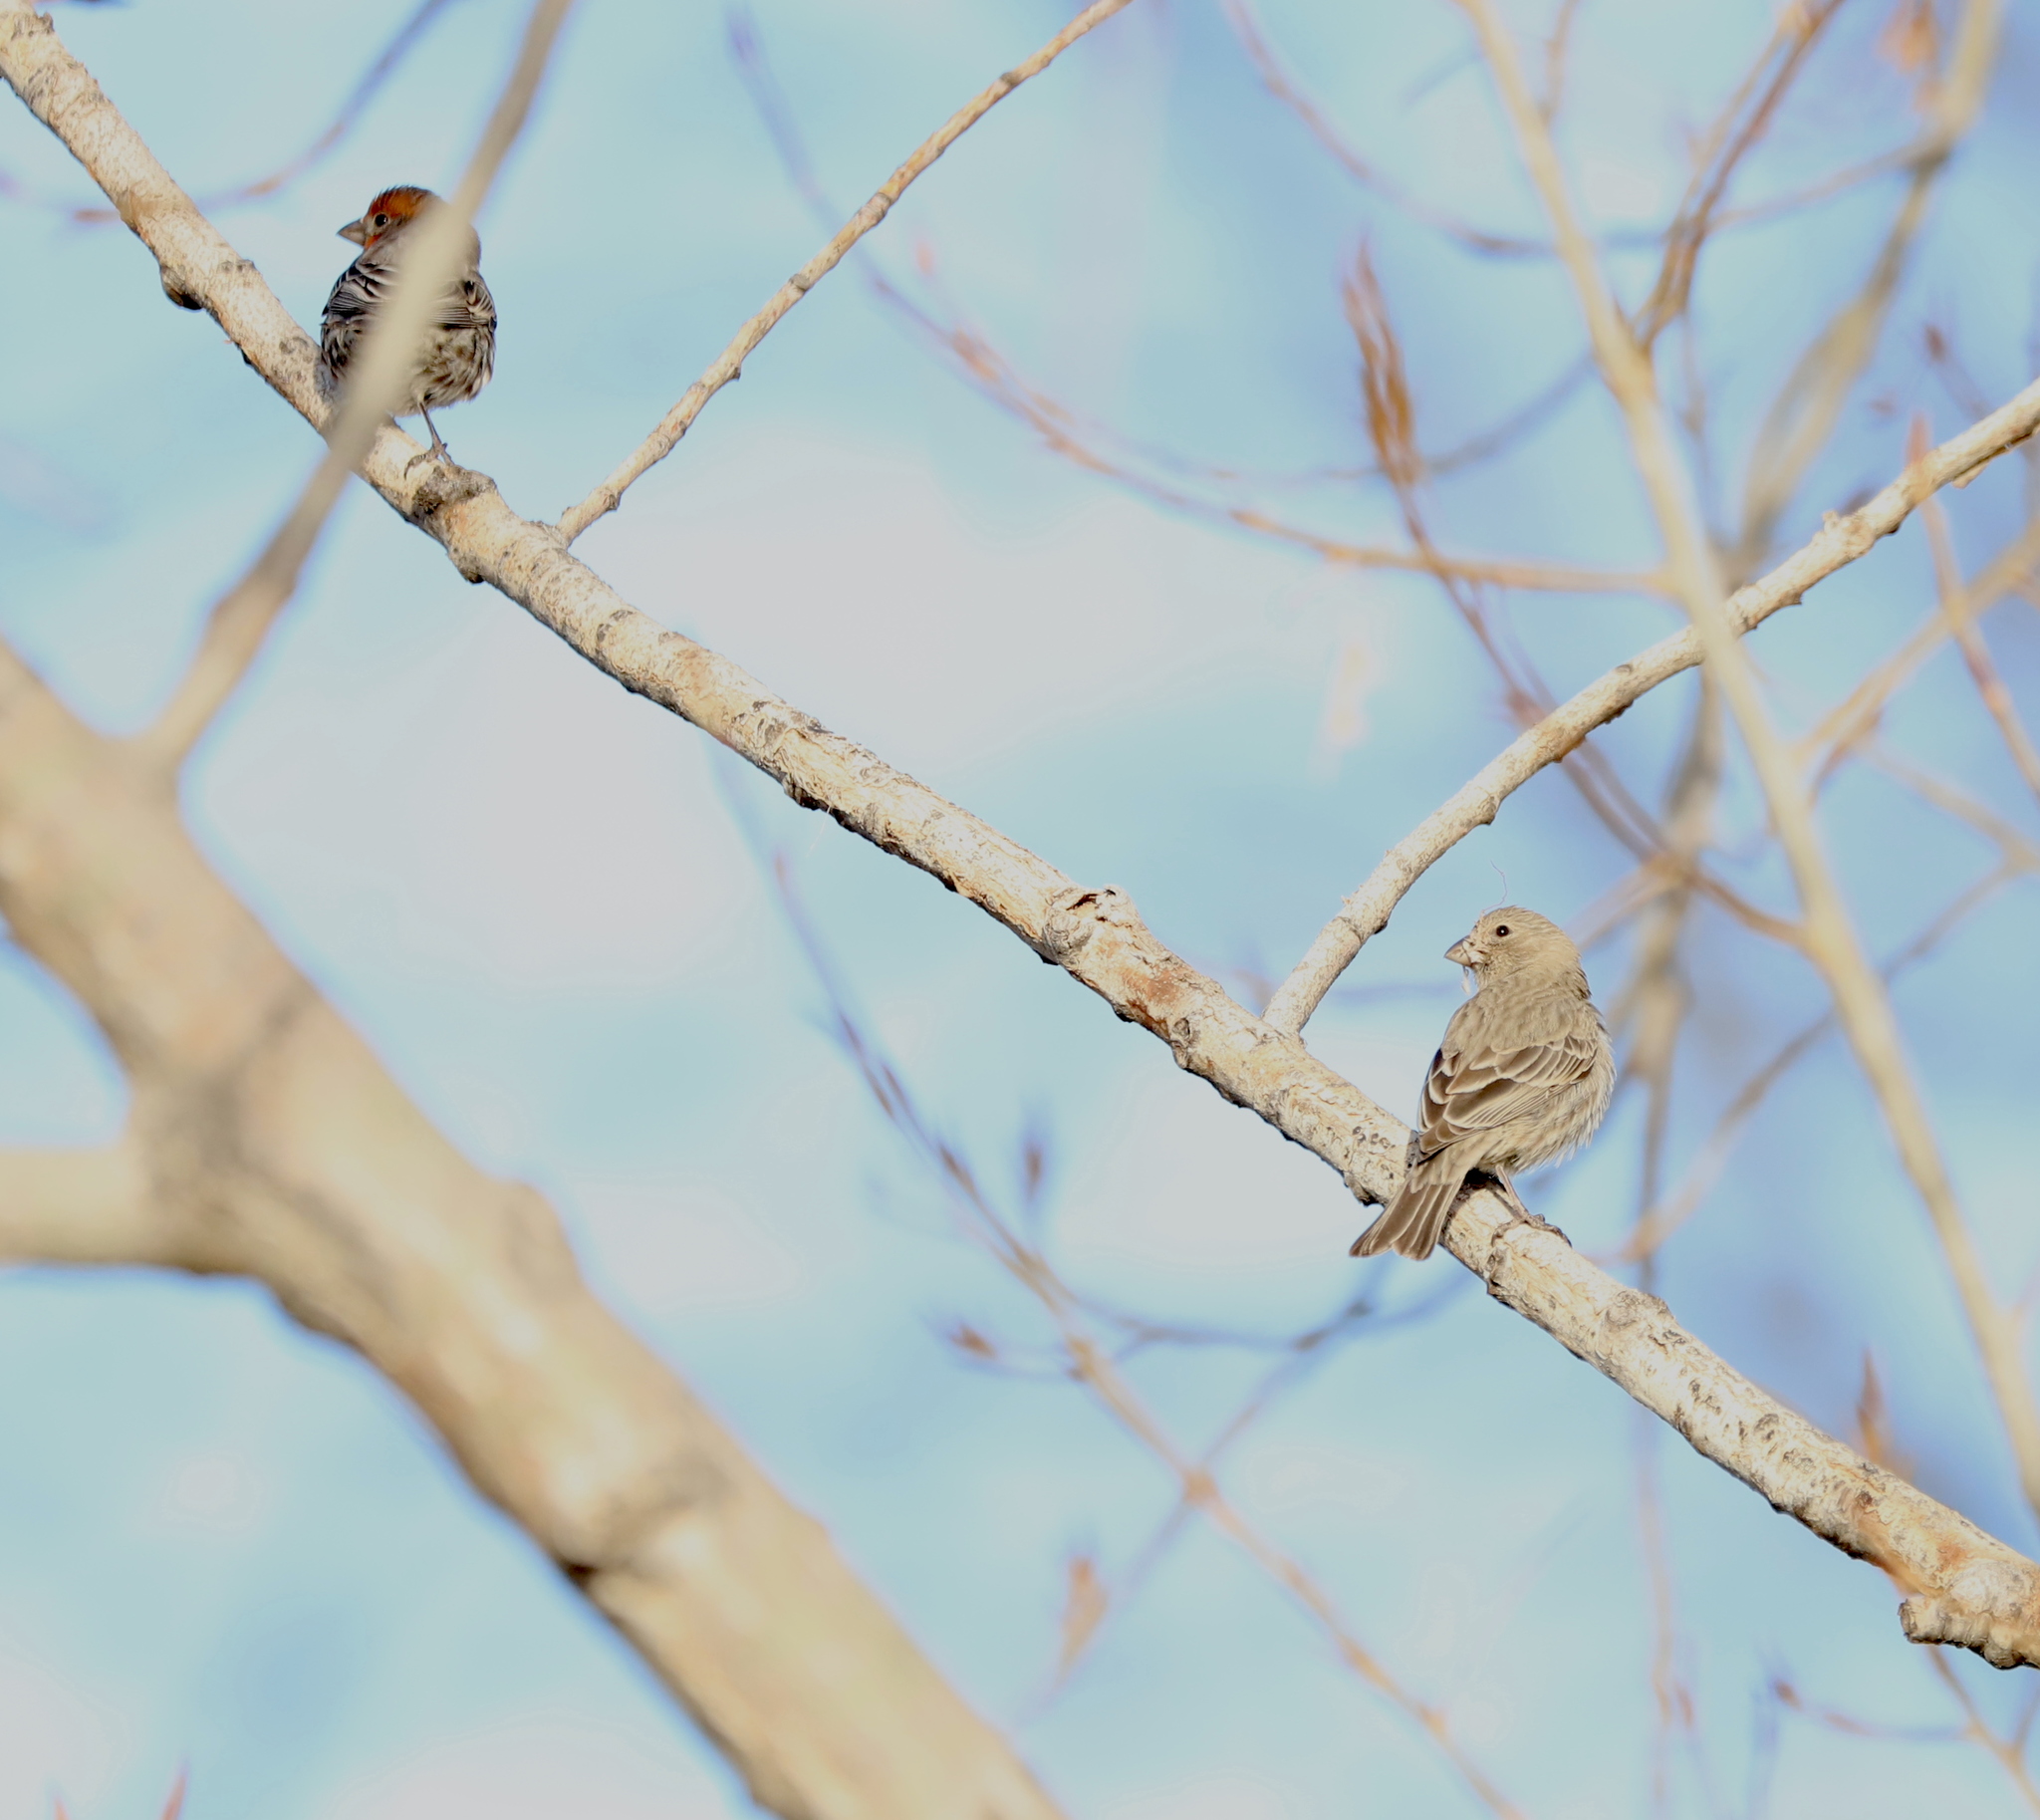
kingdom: Animalia
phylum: Chordata
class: Aves
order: Passeriformes
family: Fringillidae
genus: Haemorhous
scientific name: Haemorhous mexicanus
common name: House finch
